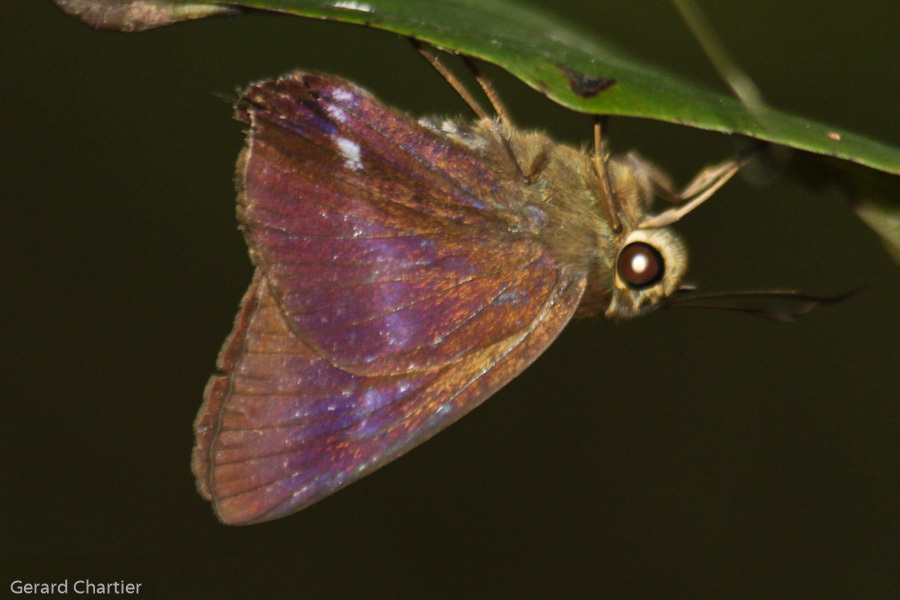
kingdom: Animalia
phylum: Arthropoda
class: Insecta
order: Lepidoptera
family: Hesperiidae
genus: Hasora
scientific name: Hasora leucospila
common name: Violet awl
